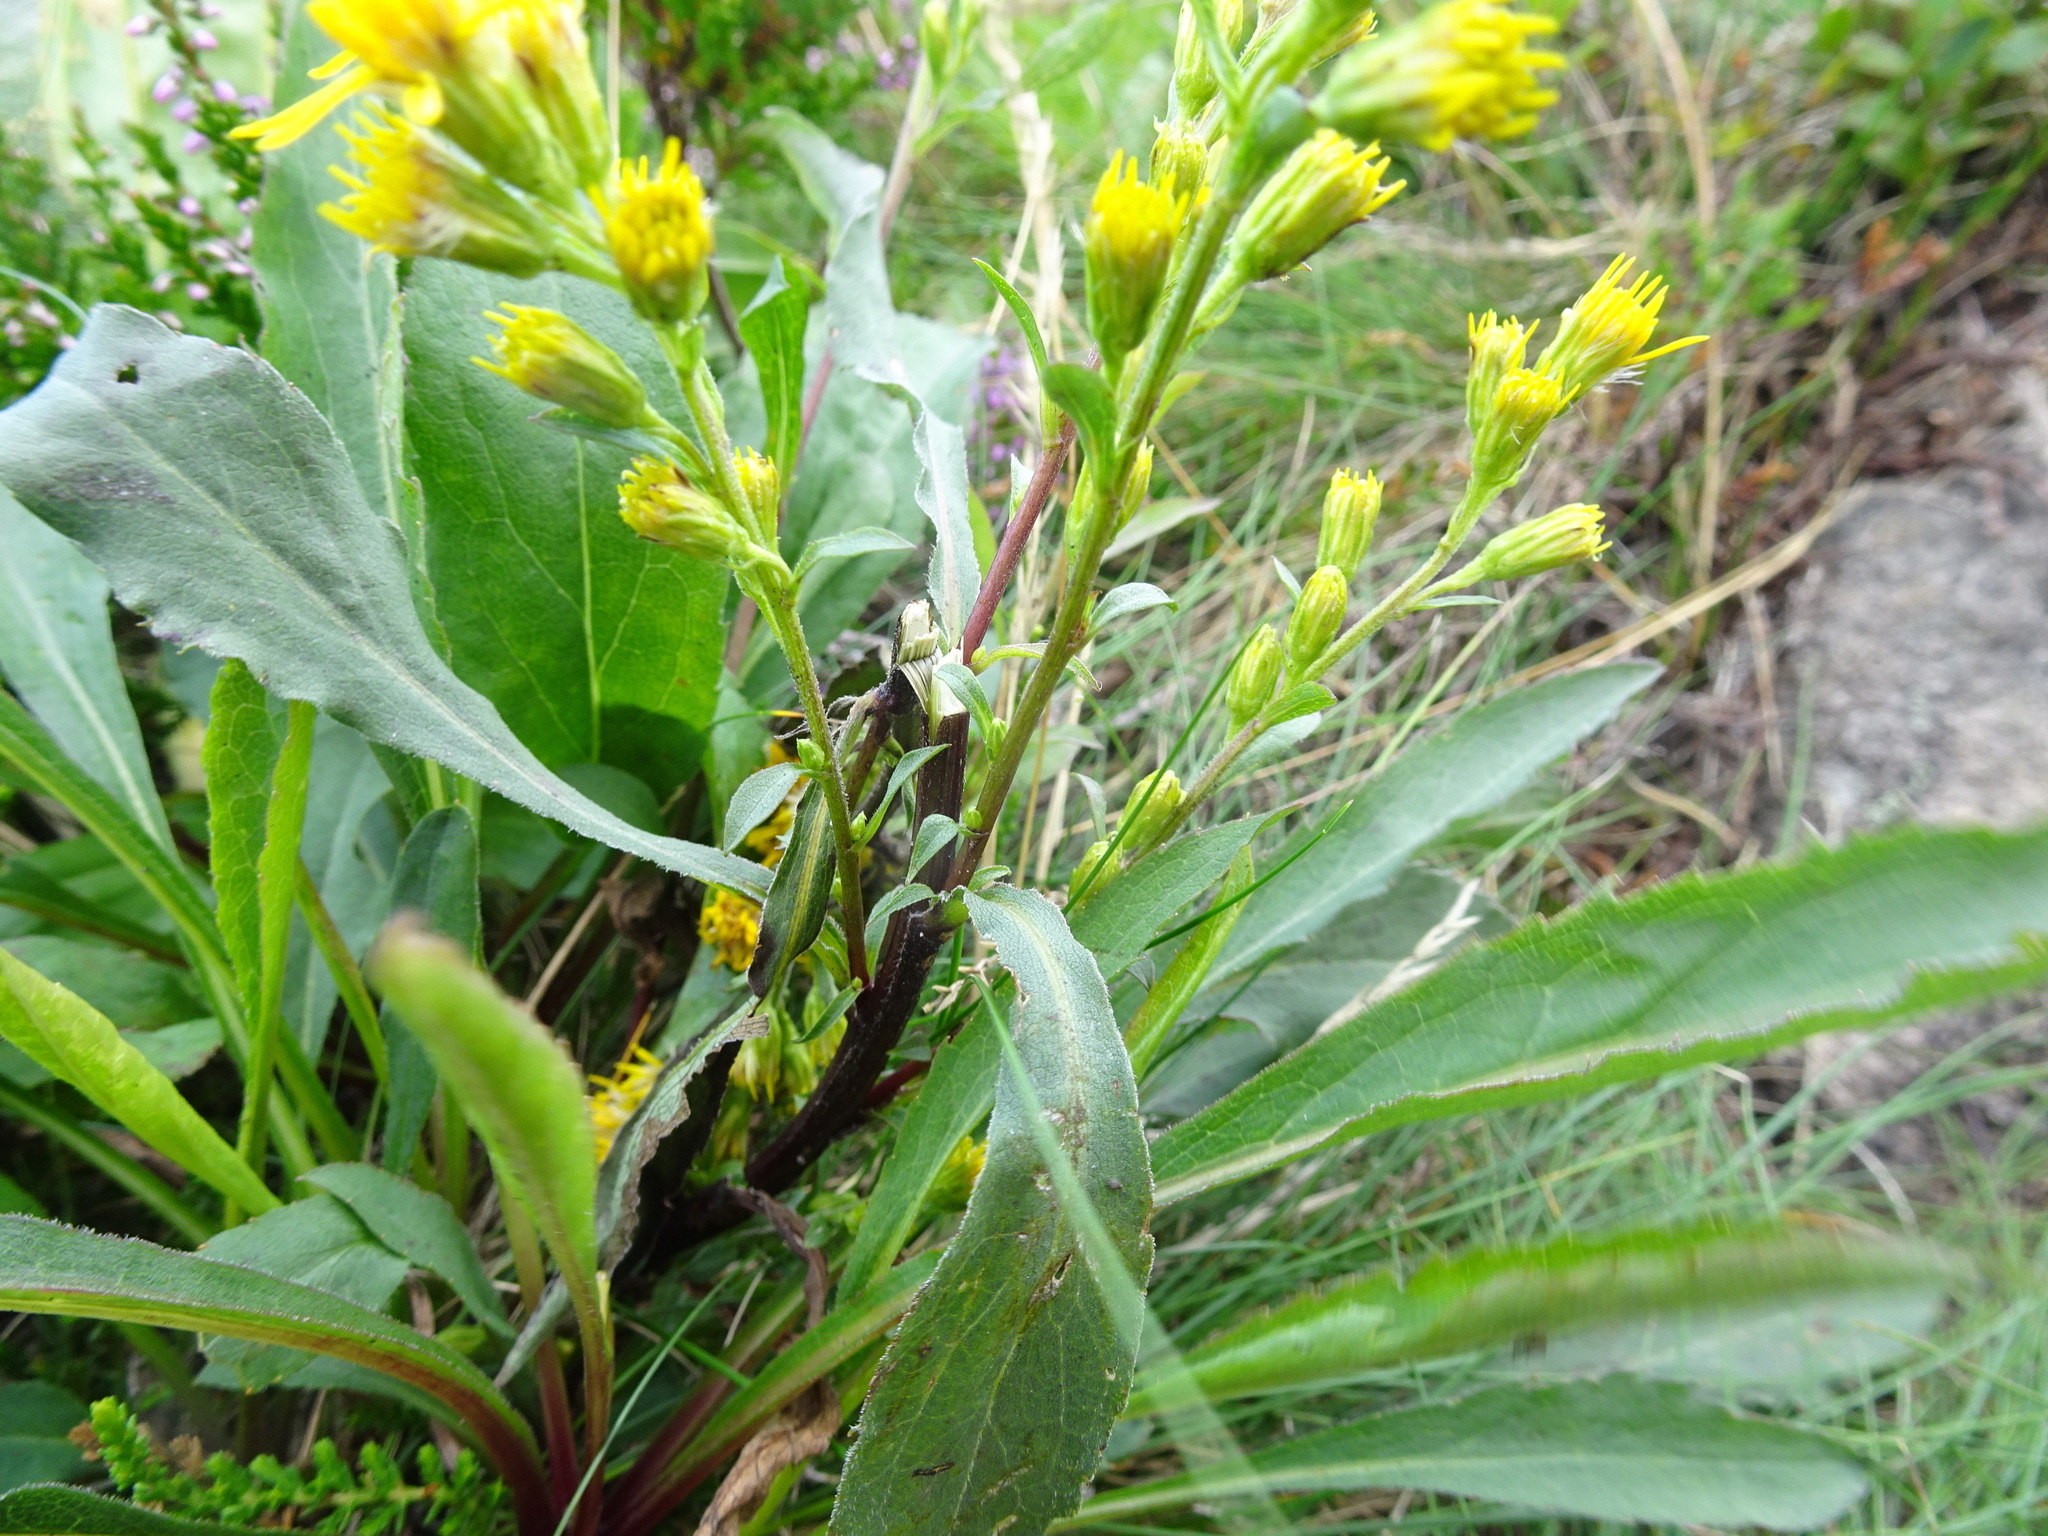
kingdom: Plantae
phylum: Tracheophyta
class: Magnoliopsida
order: Asterales
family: Asteraceae
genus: Solidago
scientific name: Solidago virgaurea
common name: Goldenrod
